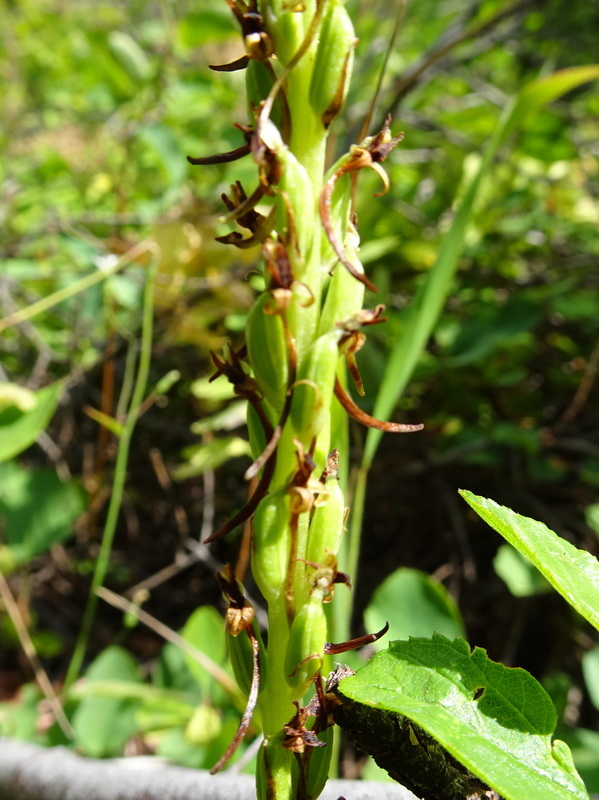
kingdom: Plantae
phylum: Tracheophyta
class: Liliopsida
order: Asparagales
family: Orchidaceae
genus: Platanthera
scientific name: Platanthera elongata
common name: Dense-flowered rein orchid
